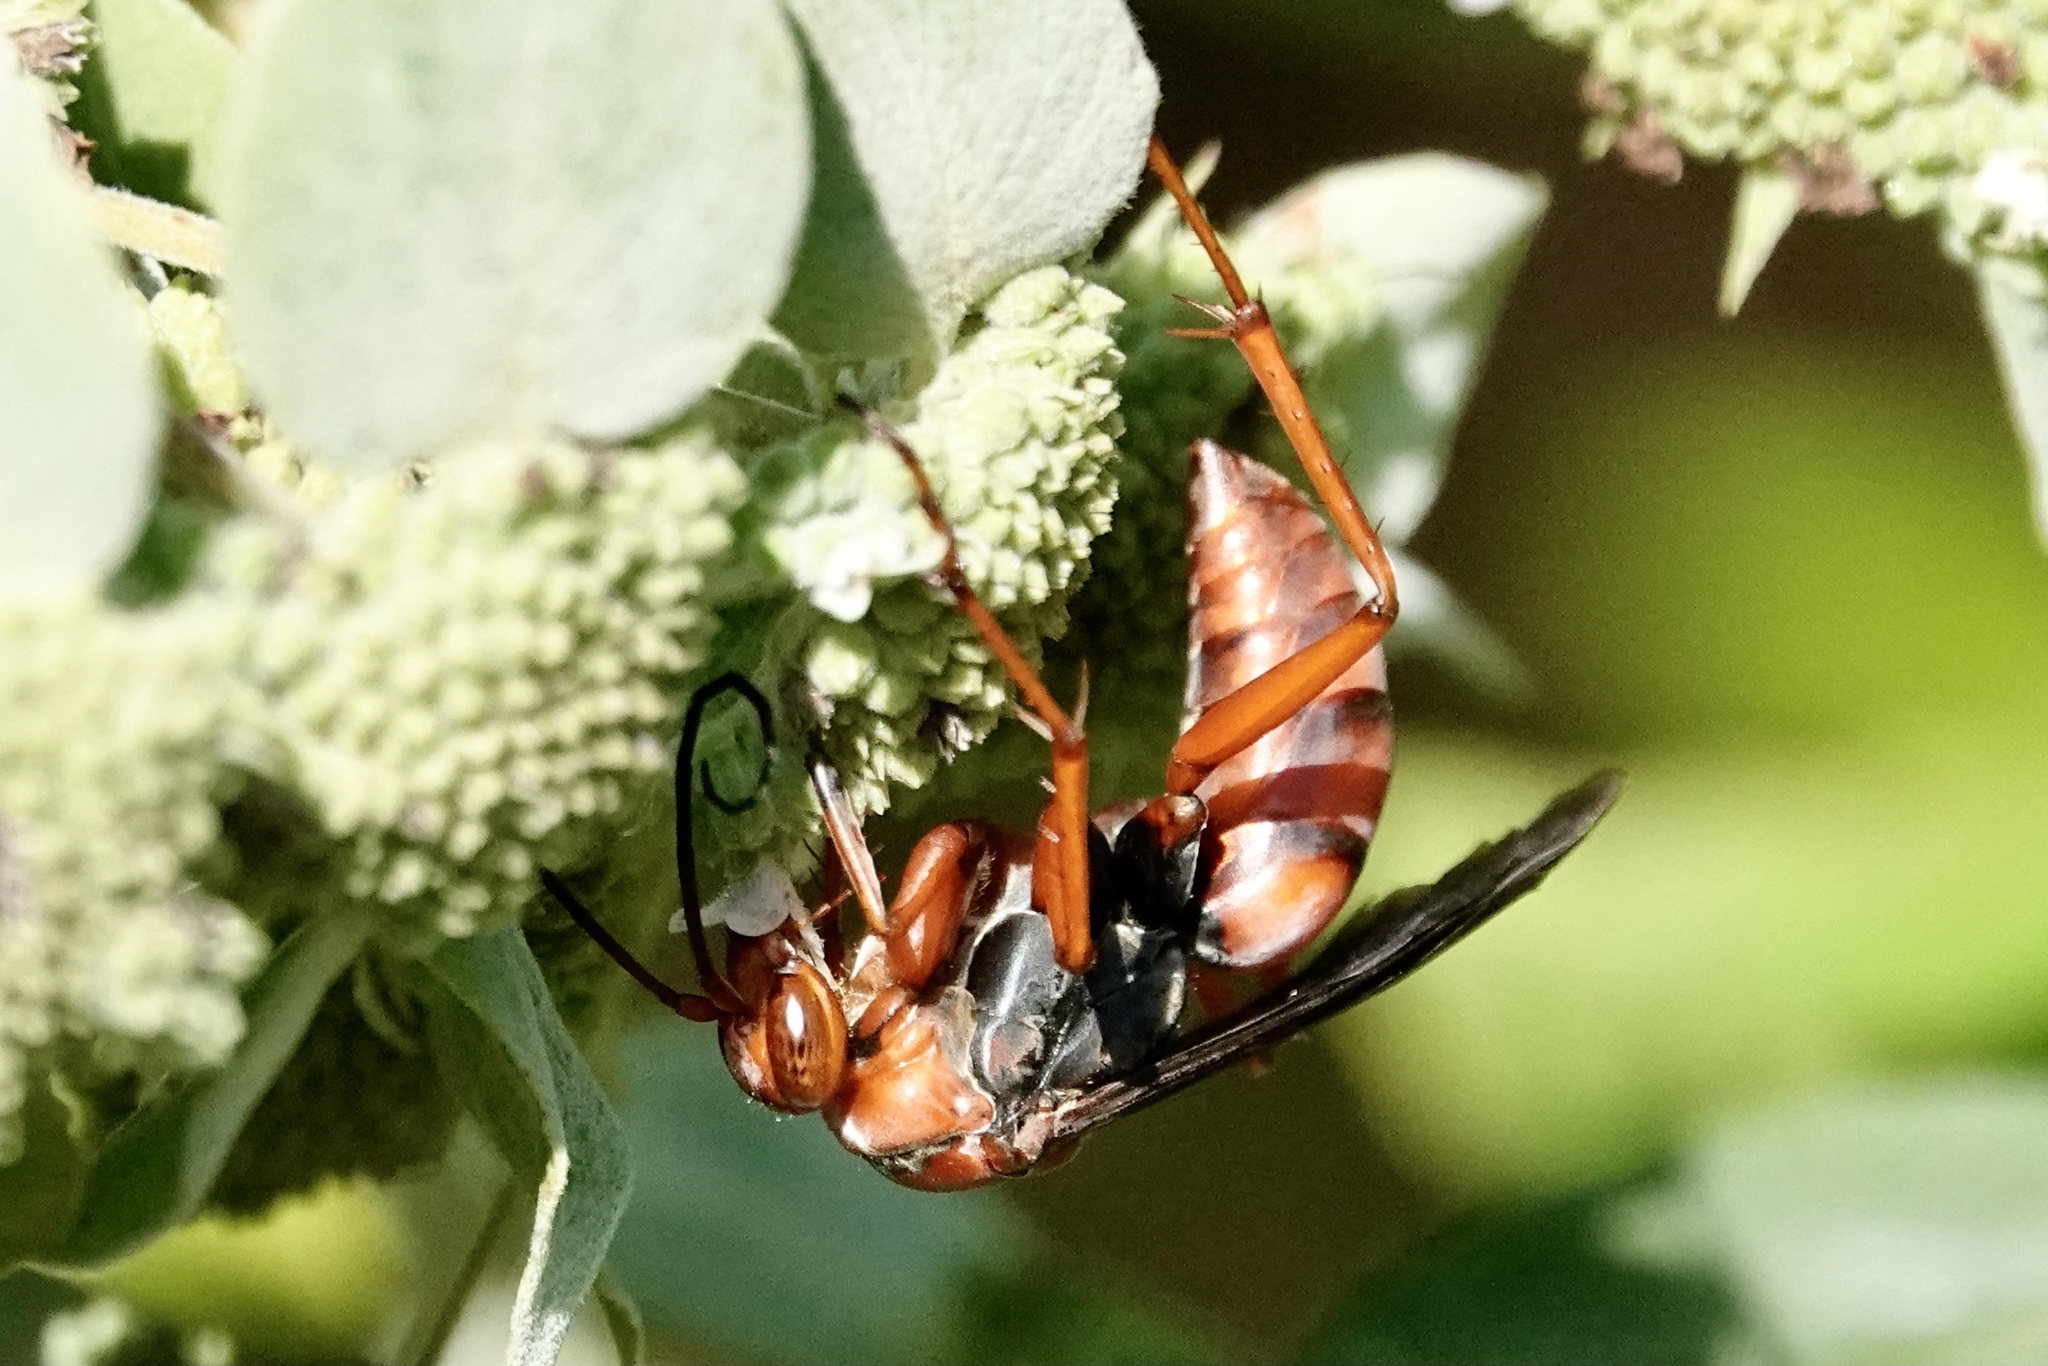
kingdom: Animalia
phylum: Arthropoda
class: Insecta
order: Hymenoptera
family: Pompilidae
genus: Tachypompilus
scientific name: Tachypompilus ferrugineus
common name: Rusty spider wasp
